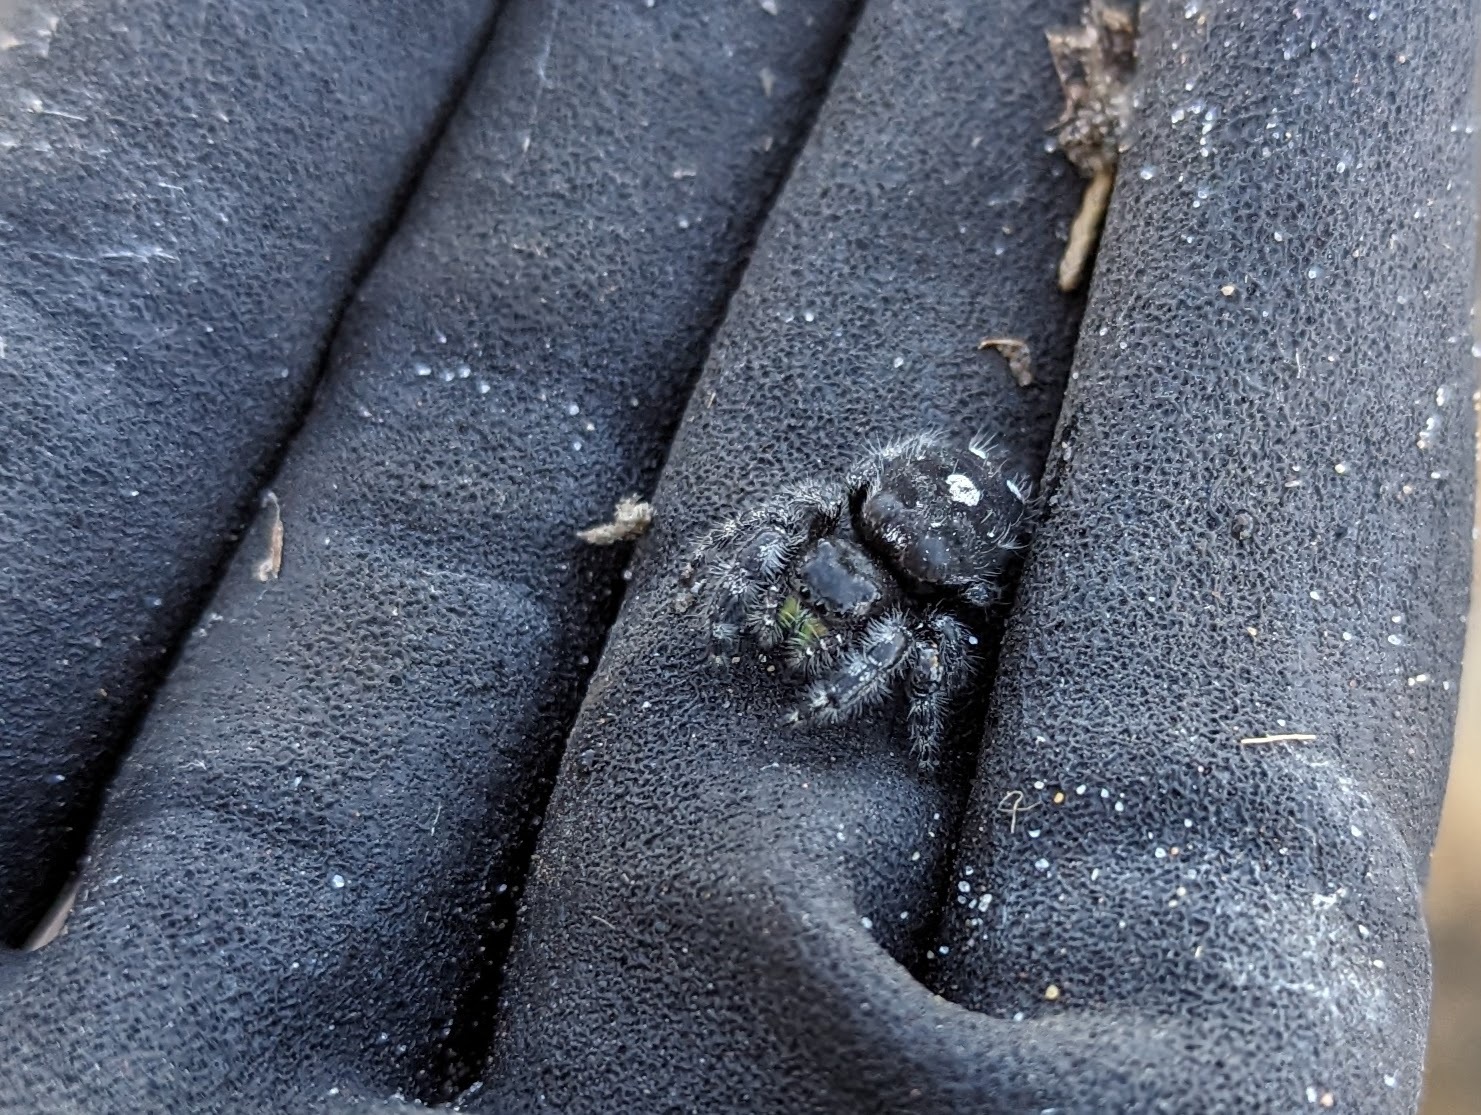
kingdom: Animalia
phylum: Arthropoda
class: Arachnida
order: Araneae
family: Salticidae
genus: Phidippus
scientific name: Phidippus audax
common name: Bold jumper
